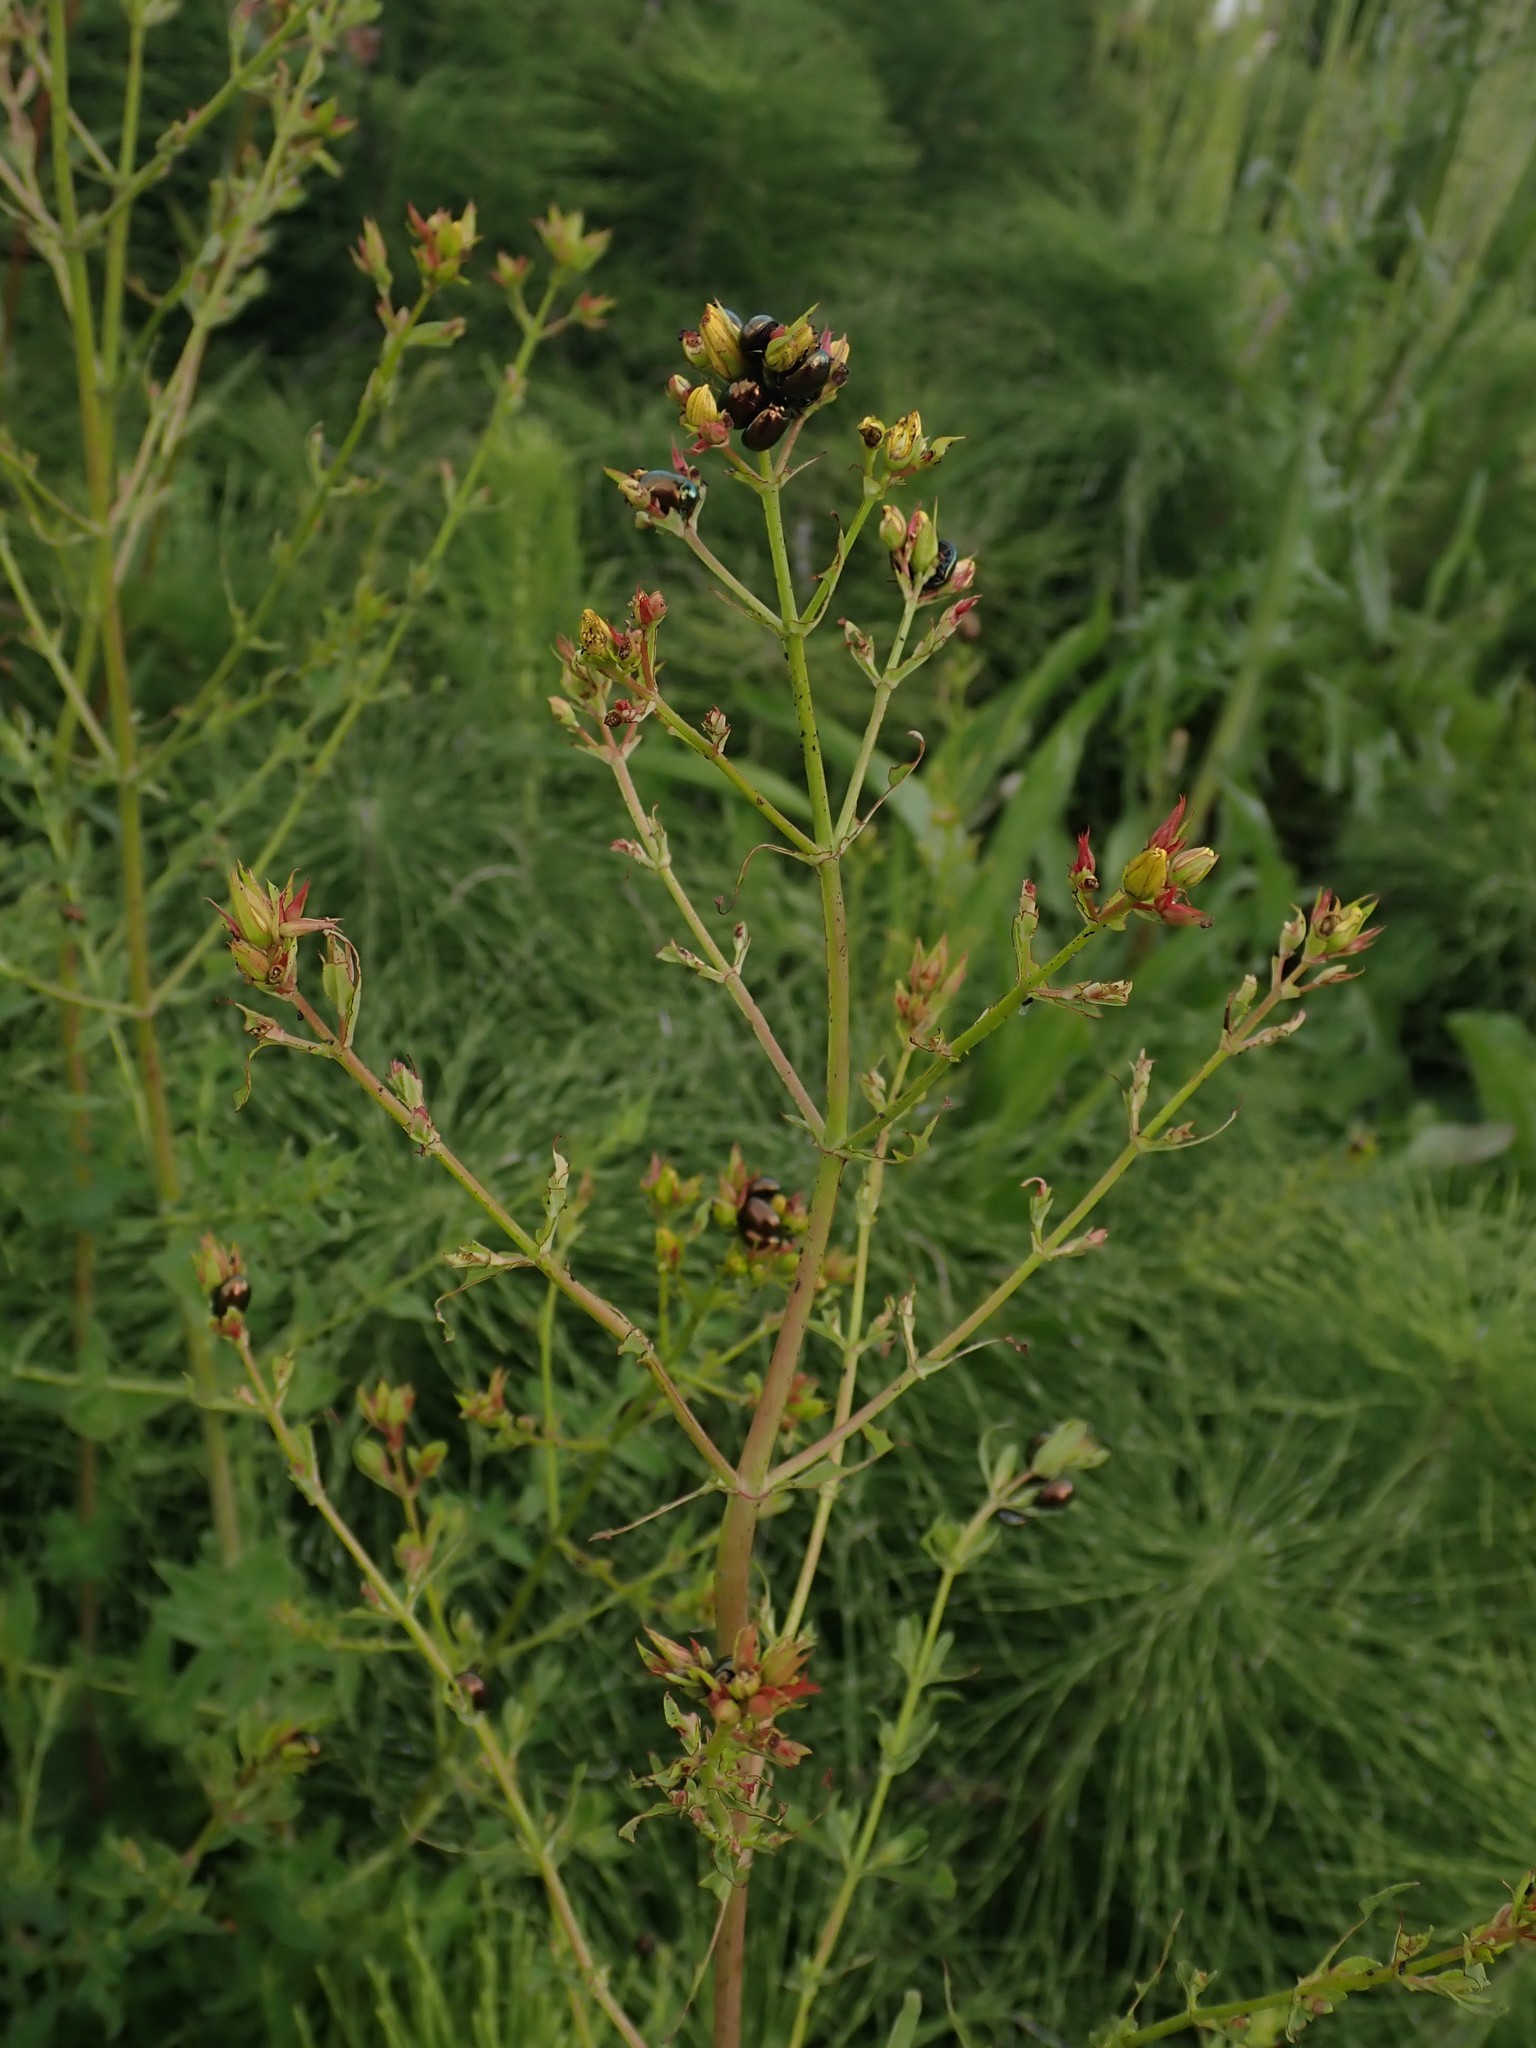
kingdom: Plantae
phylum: Tracheophyta
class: Magnoliopsida
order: Malpighiales
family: Hypericaceae
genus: Hypericum
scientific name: Hypericum perforatum
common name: Common st. johnswort
